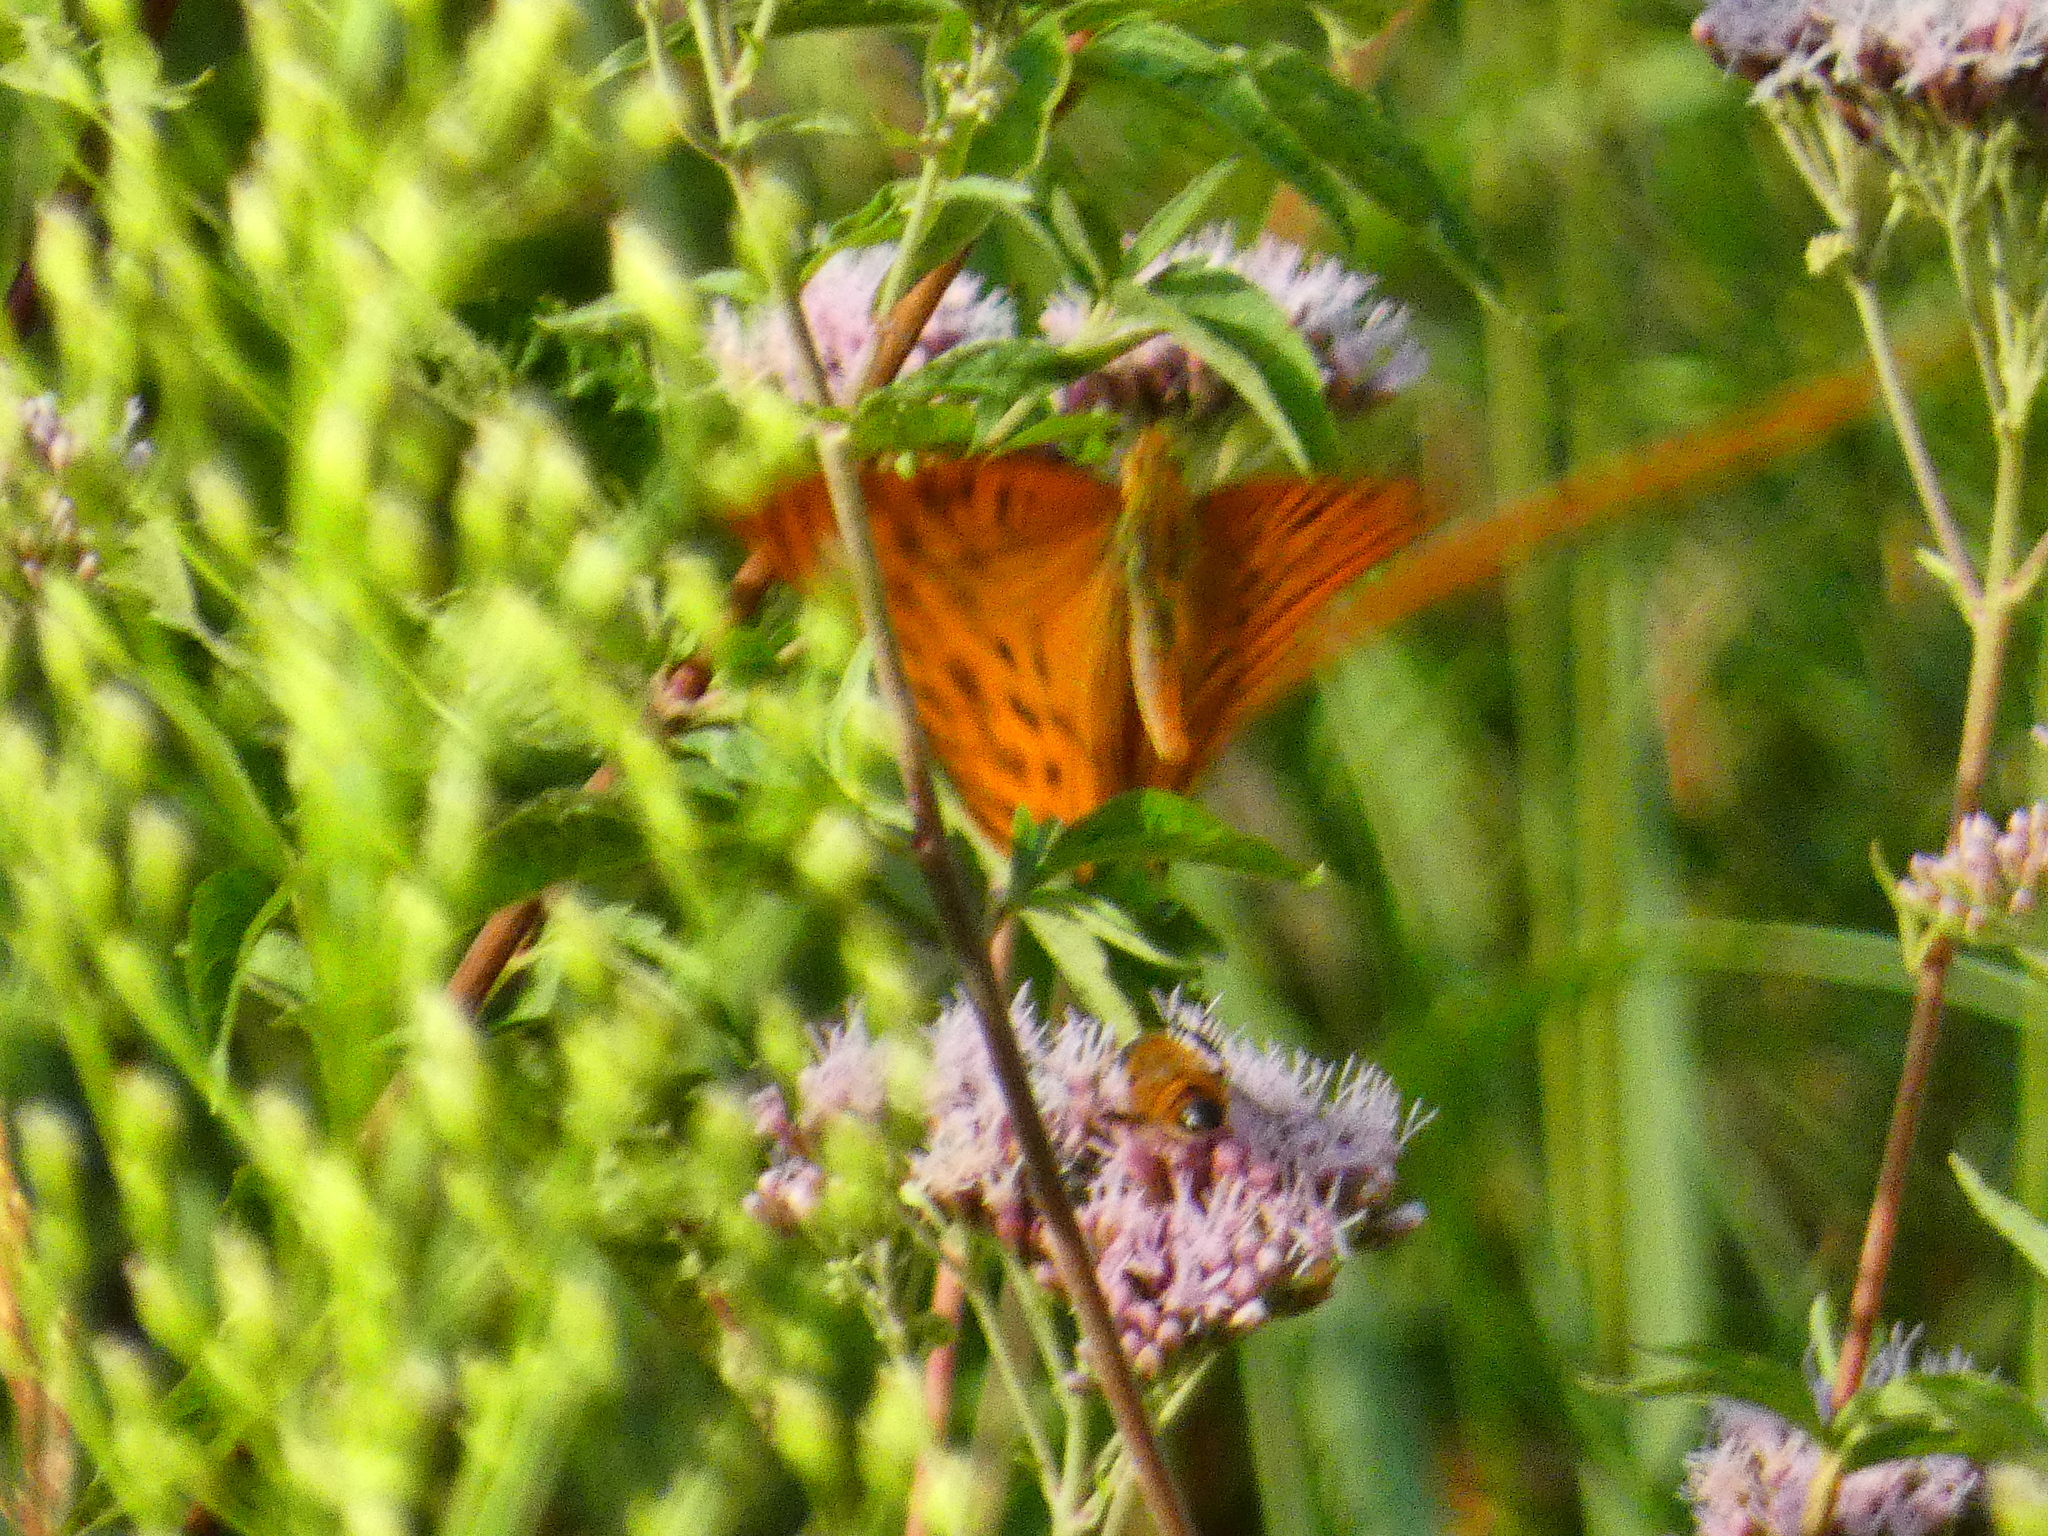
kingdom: Animalia
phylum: Arthropoda
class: Insecta
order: Lepidoptera
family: Nymphalidae
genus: Argynnis
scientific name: Argynnis paphia
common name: Silver-washed fritillary
